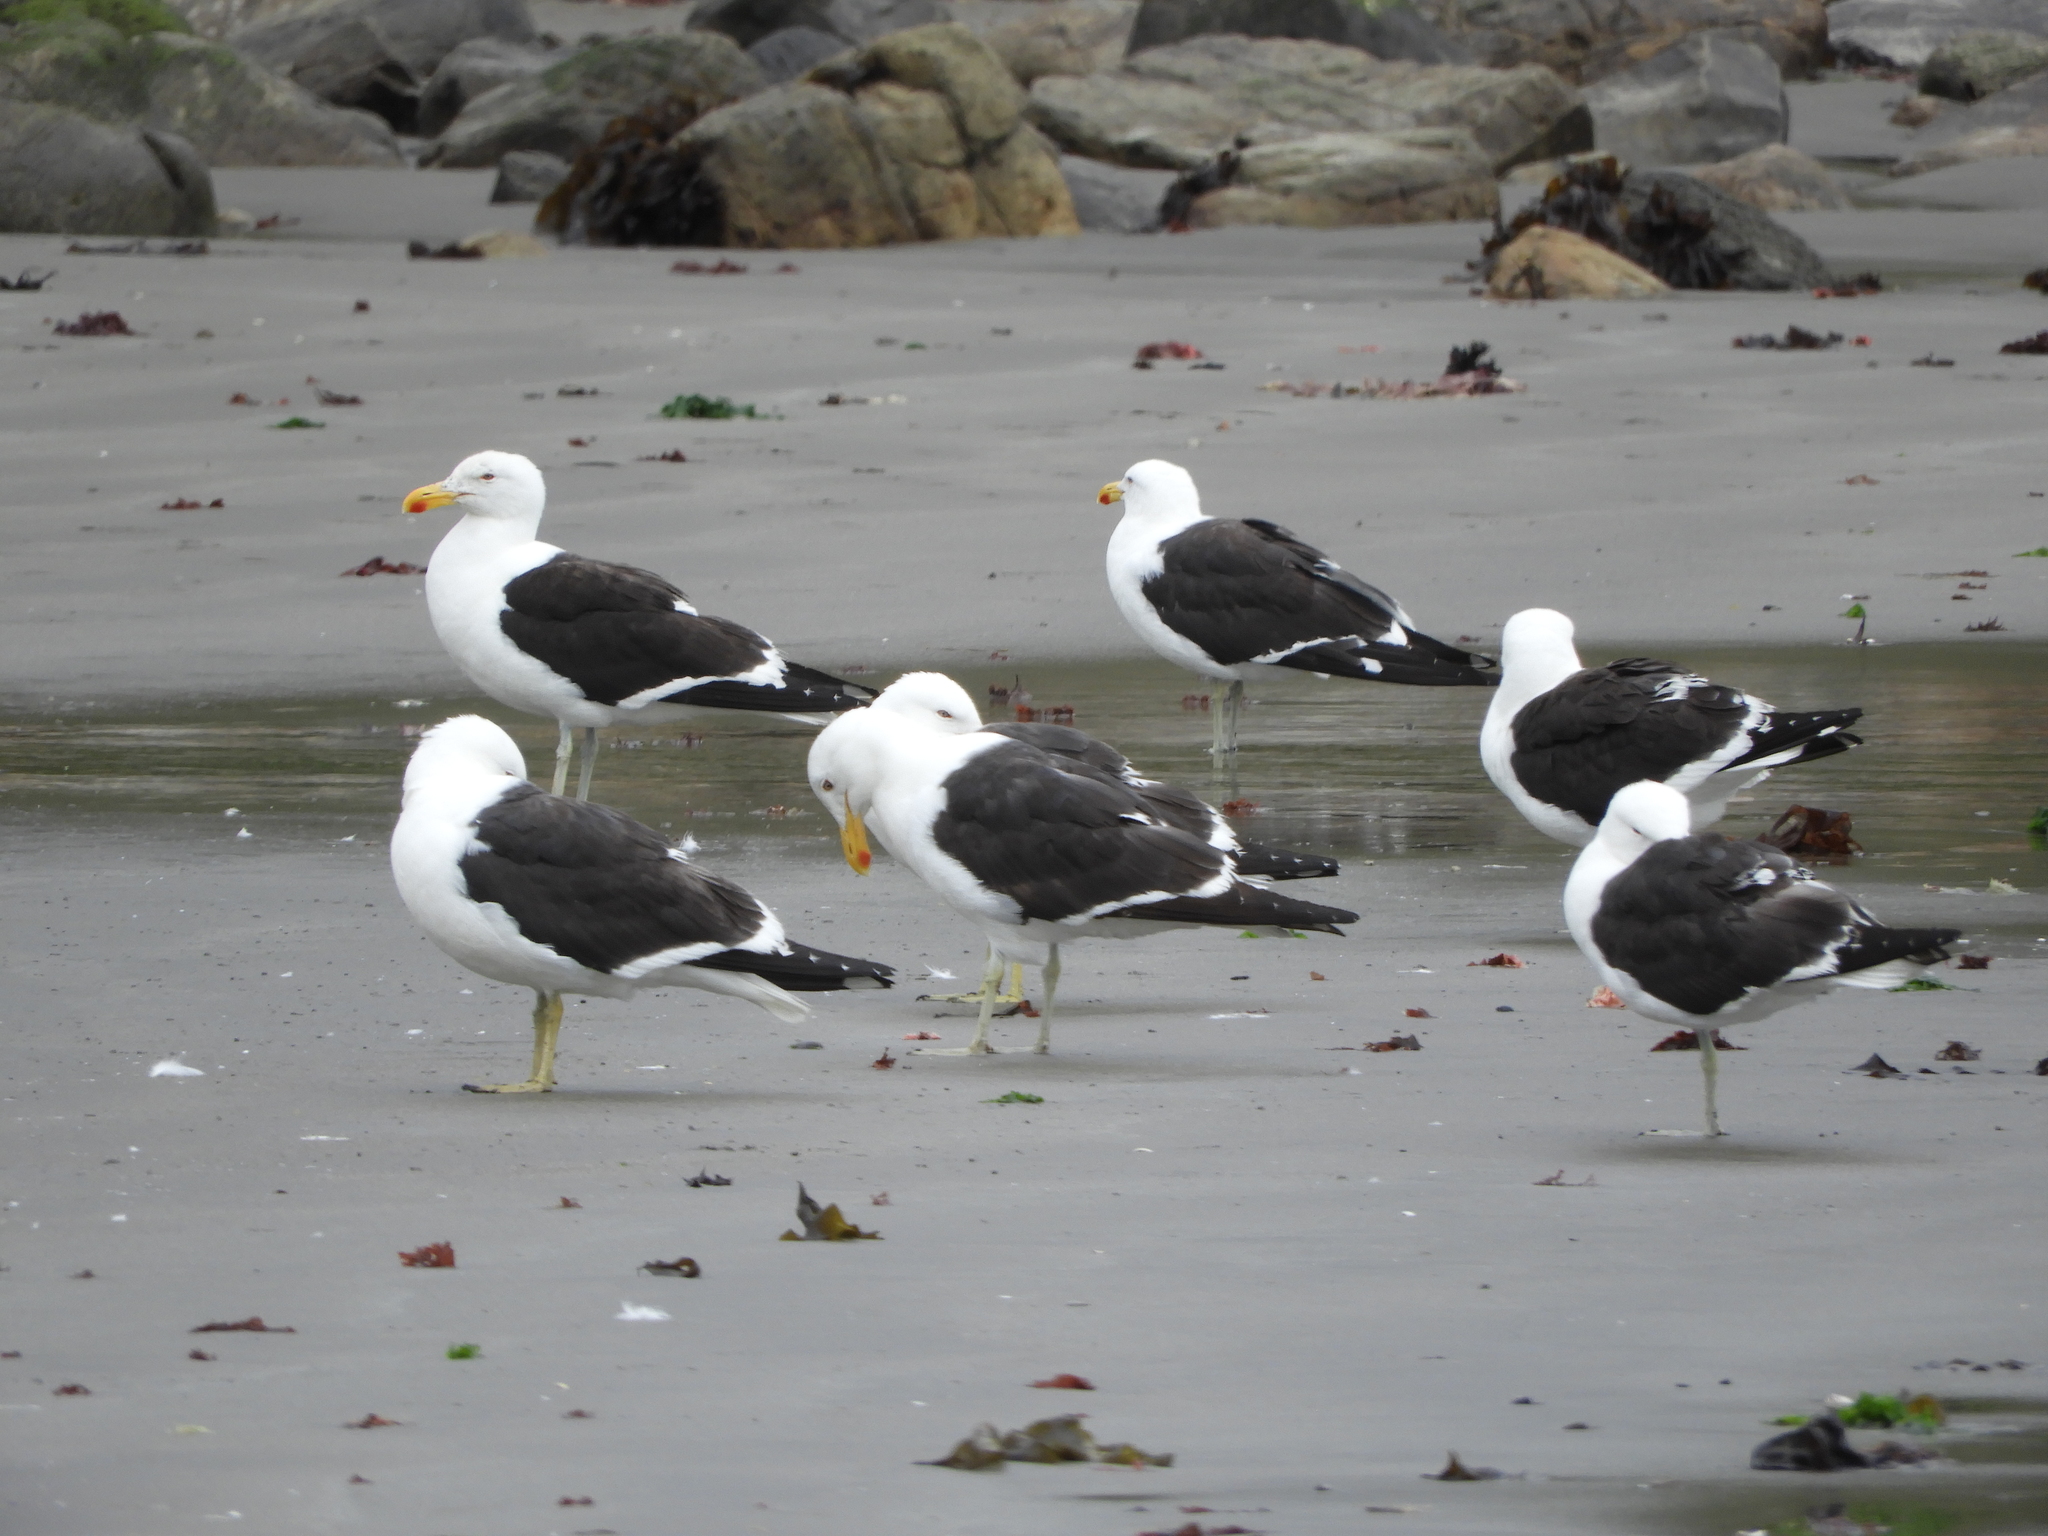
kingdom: Animalia
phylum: Chordata
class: Aves
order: Charadriiformes
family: Laridae
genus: Larus
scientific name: Larus dominicanus
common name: Kelp gull
